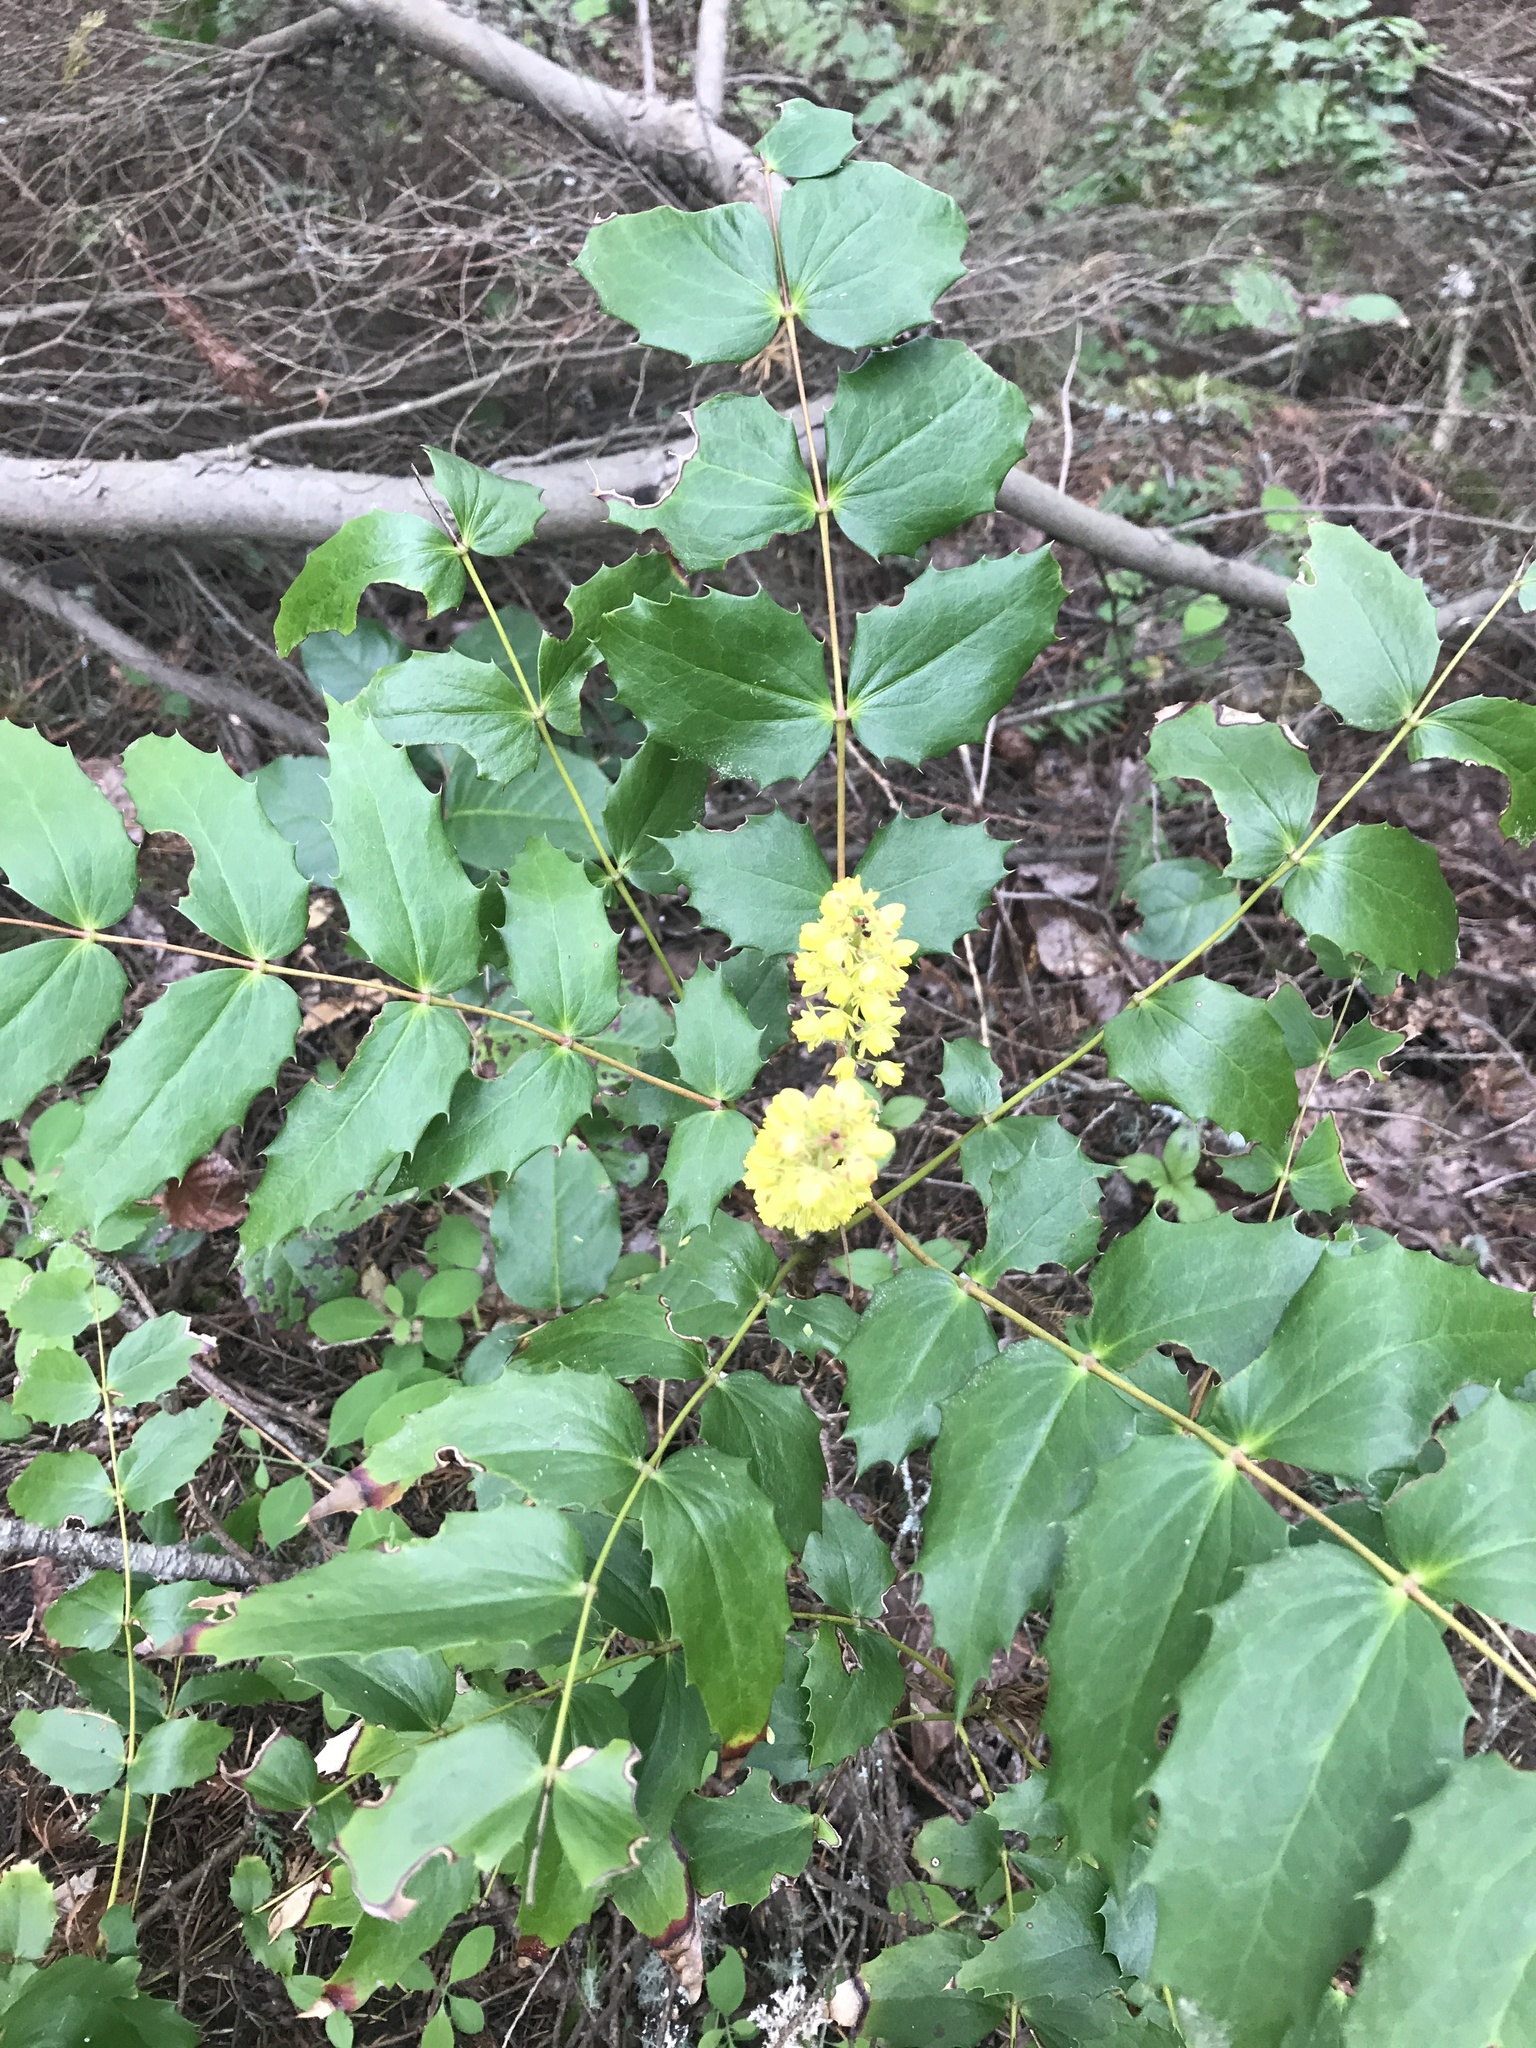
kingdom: Plantae
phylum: Tracheophyta
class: Magnoliopsida
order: Ranunculales
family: Berberidaceae
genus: Mahonia
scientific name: Mahonia nervosa
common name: Cascade oregon-grape
